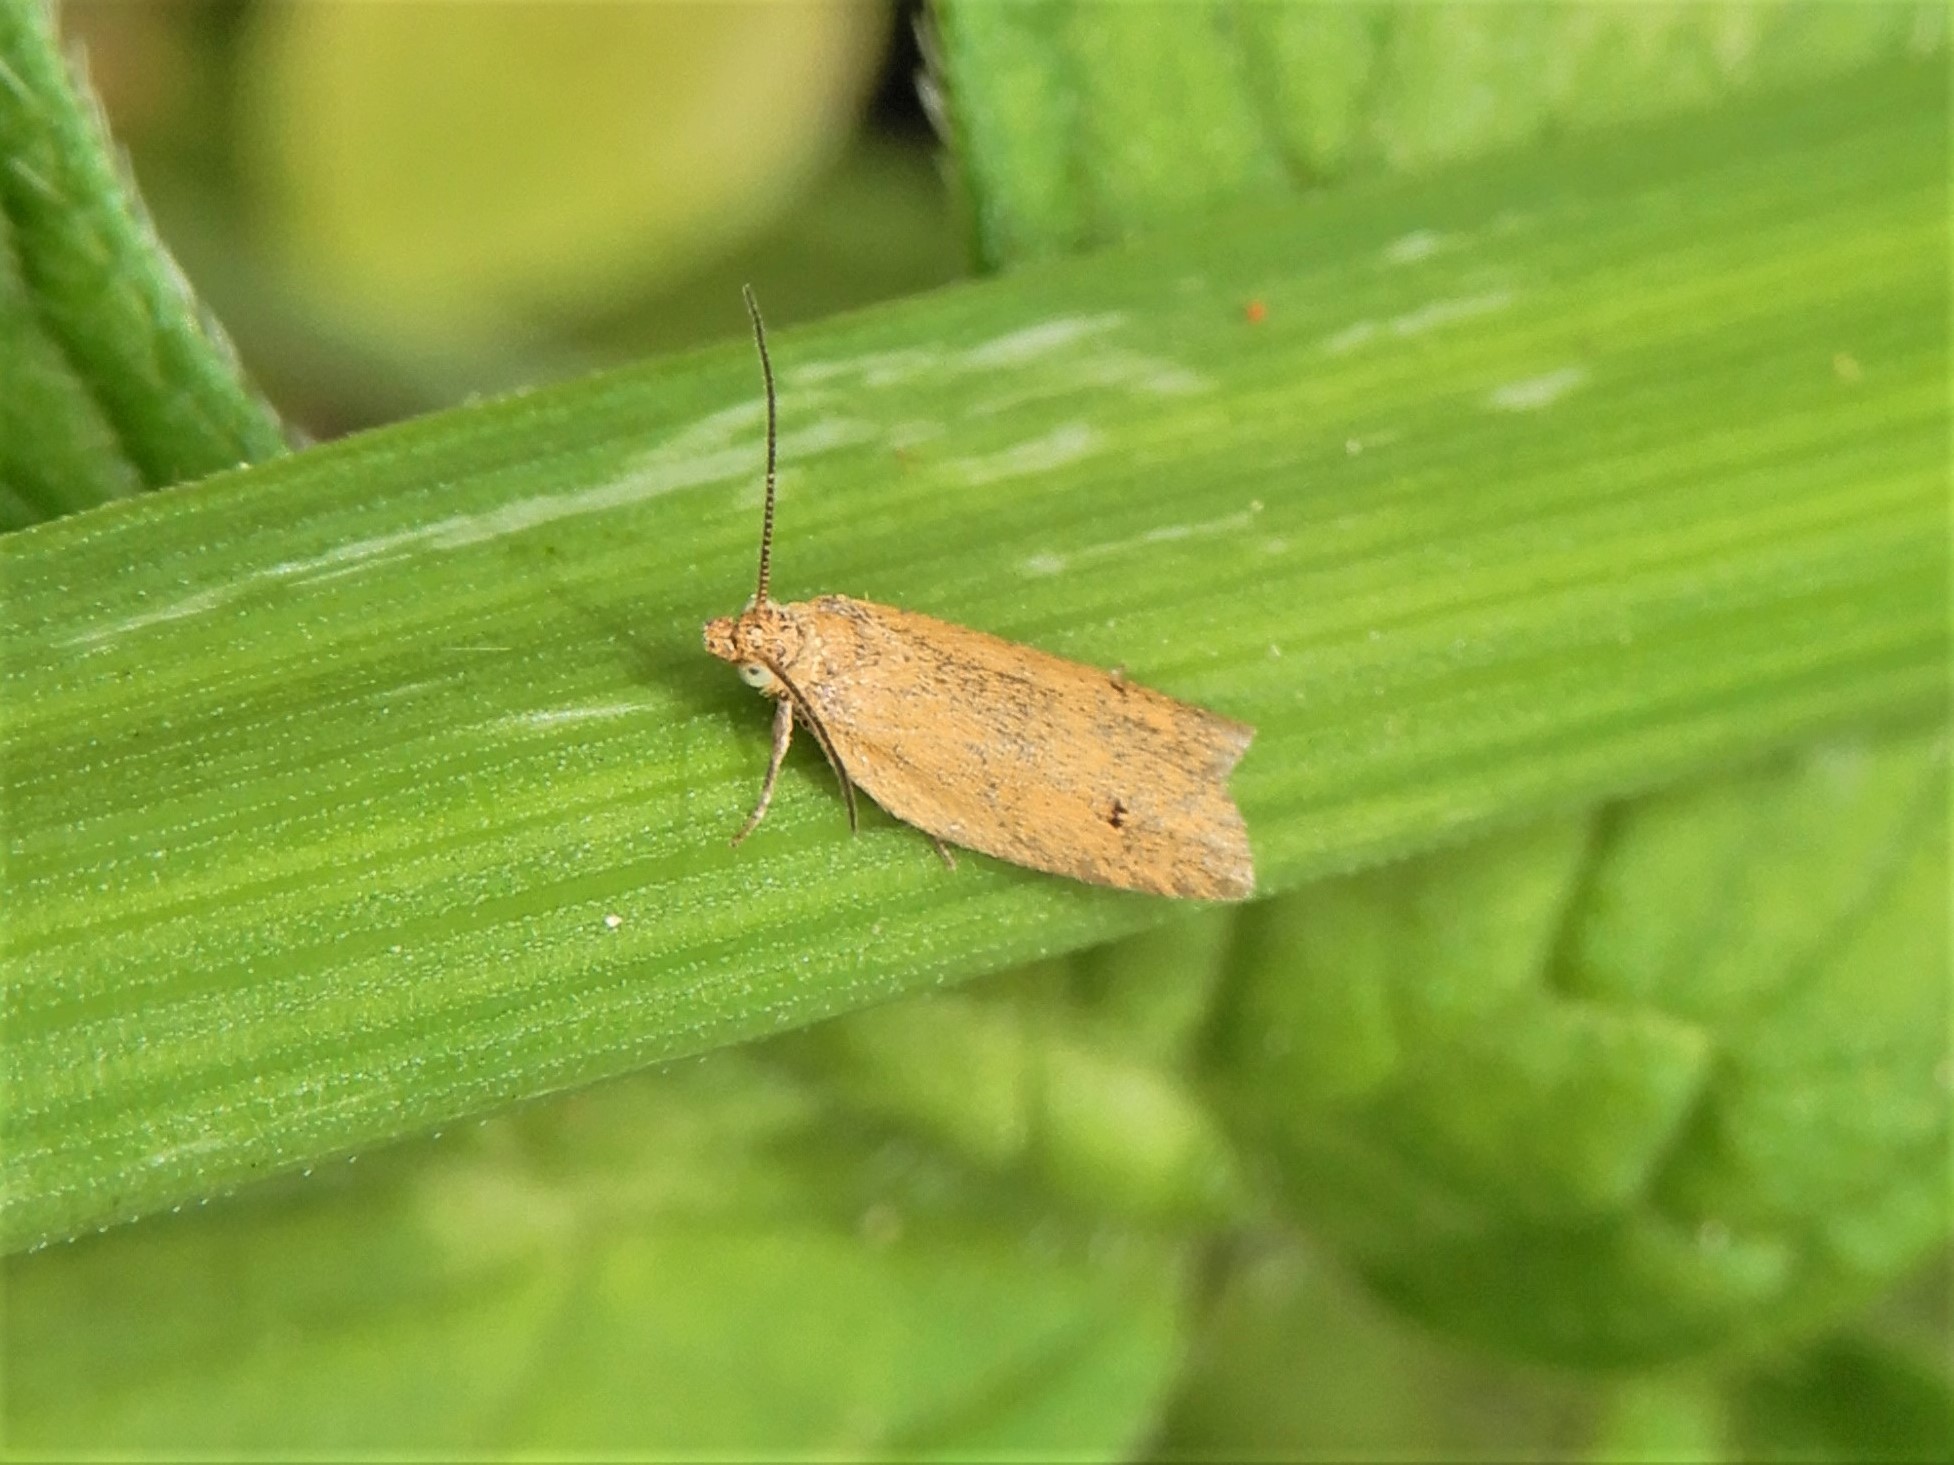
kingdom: Animalia
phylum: Arthropoda
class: Insecta
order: Lepidoptera
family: Tortricidae
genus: Epichorista
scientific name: Epichorista siriana
